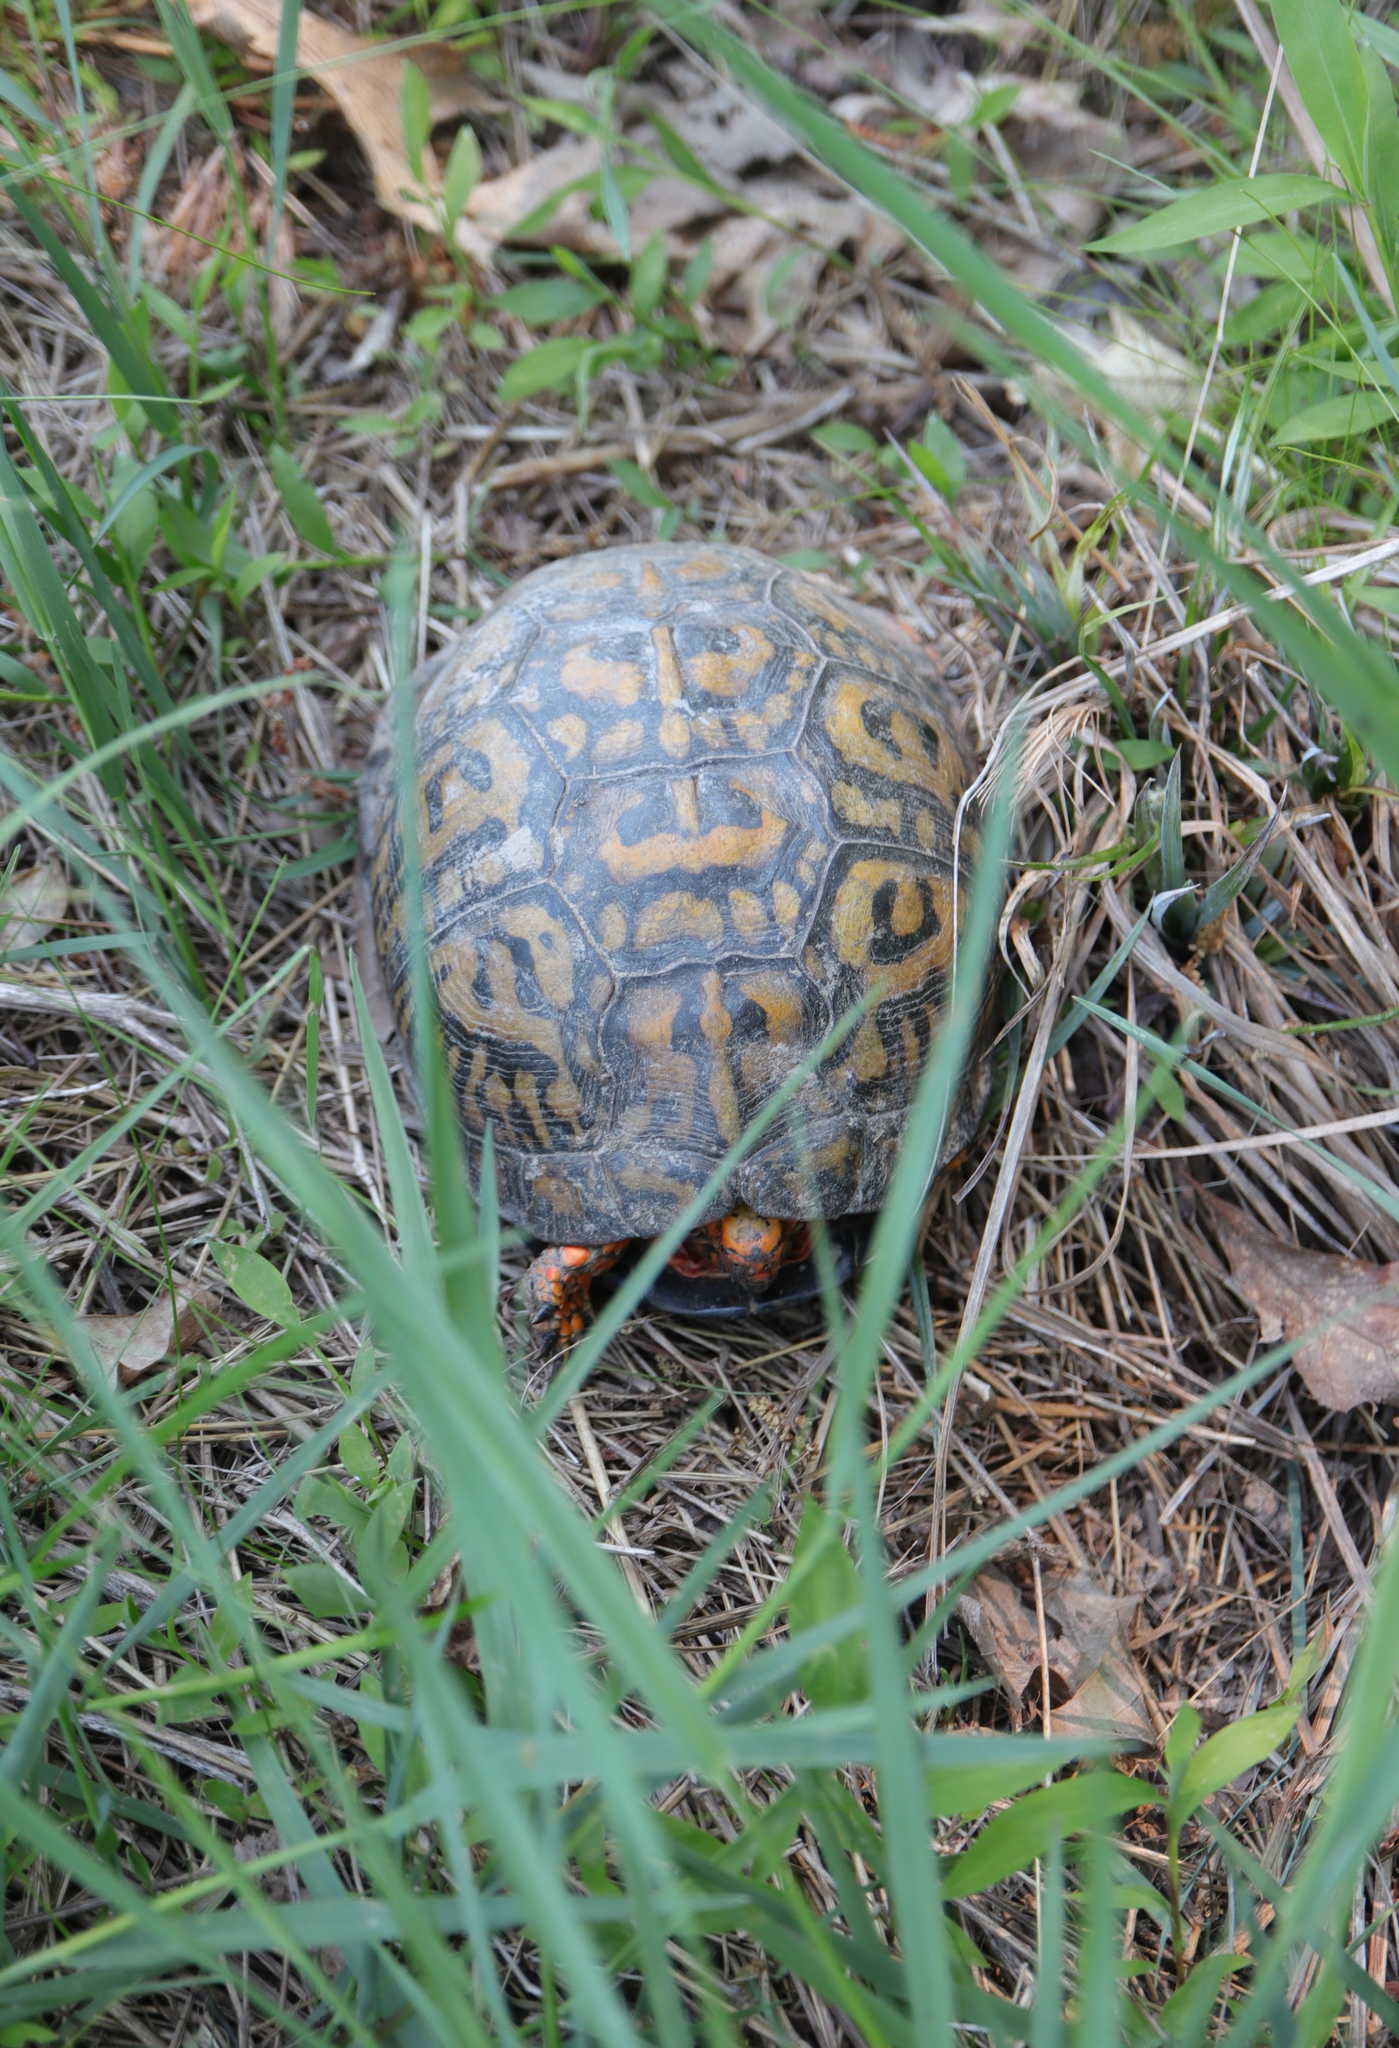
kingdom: Animalia
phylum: Chordata
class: Testudines
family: Emydidae
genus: Terrapene
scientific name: Terrapene carolina
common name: Common box turtle
